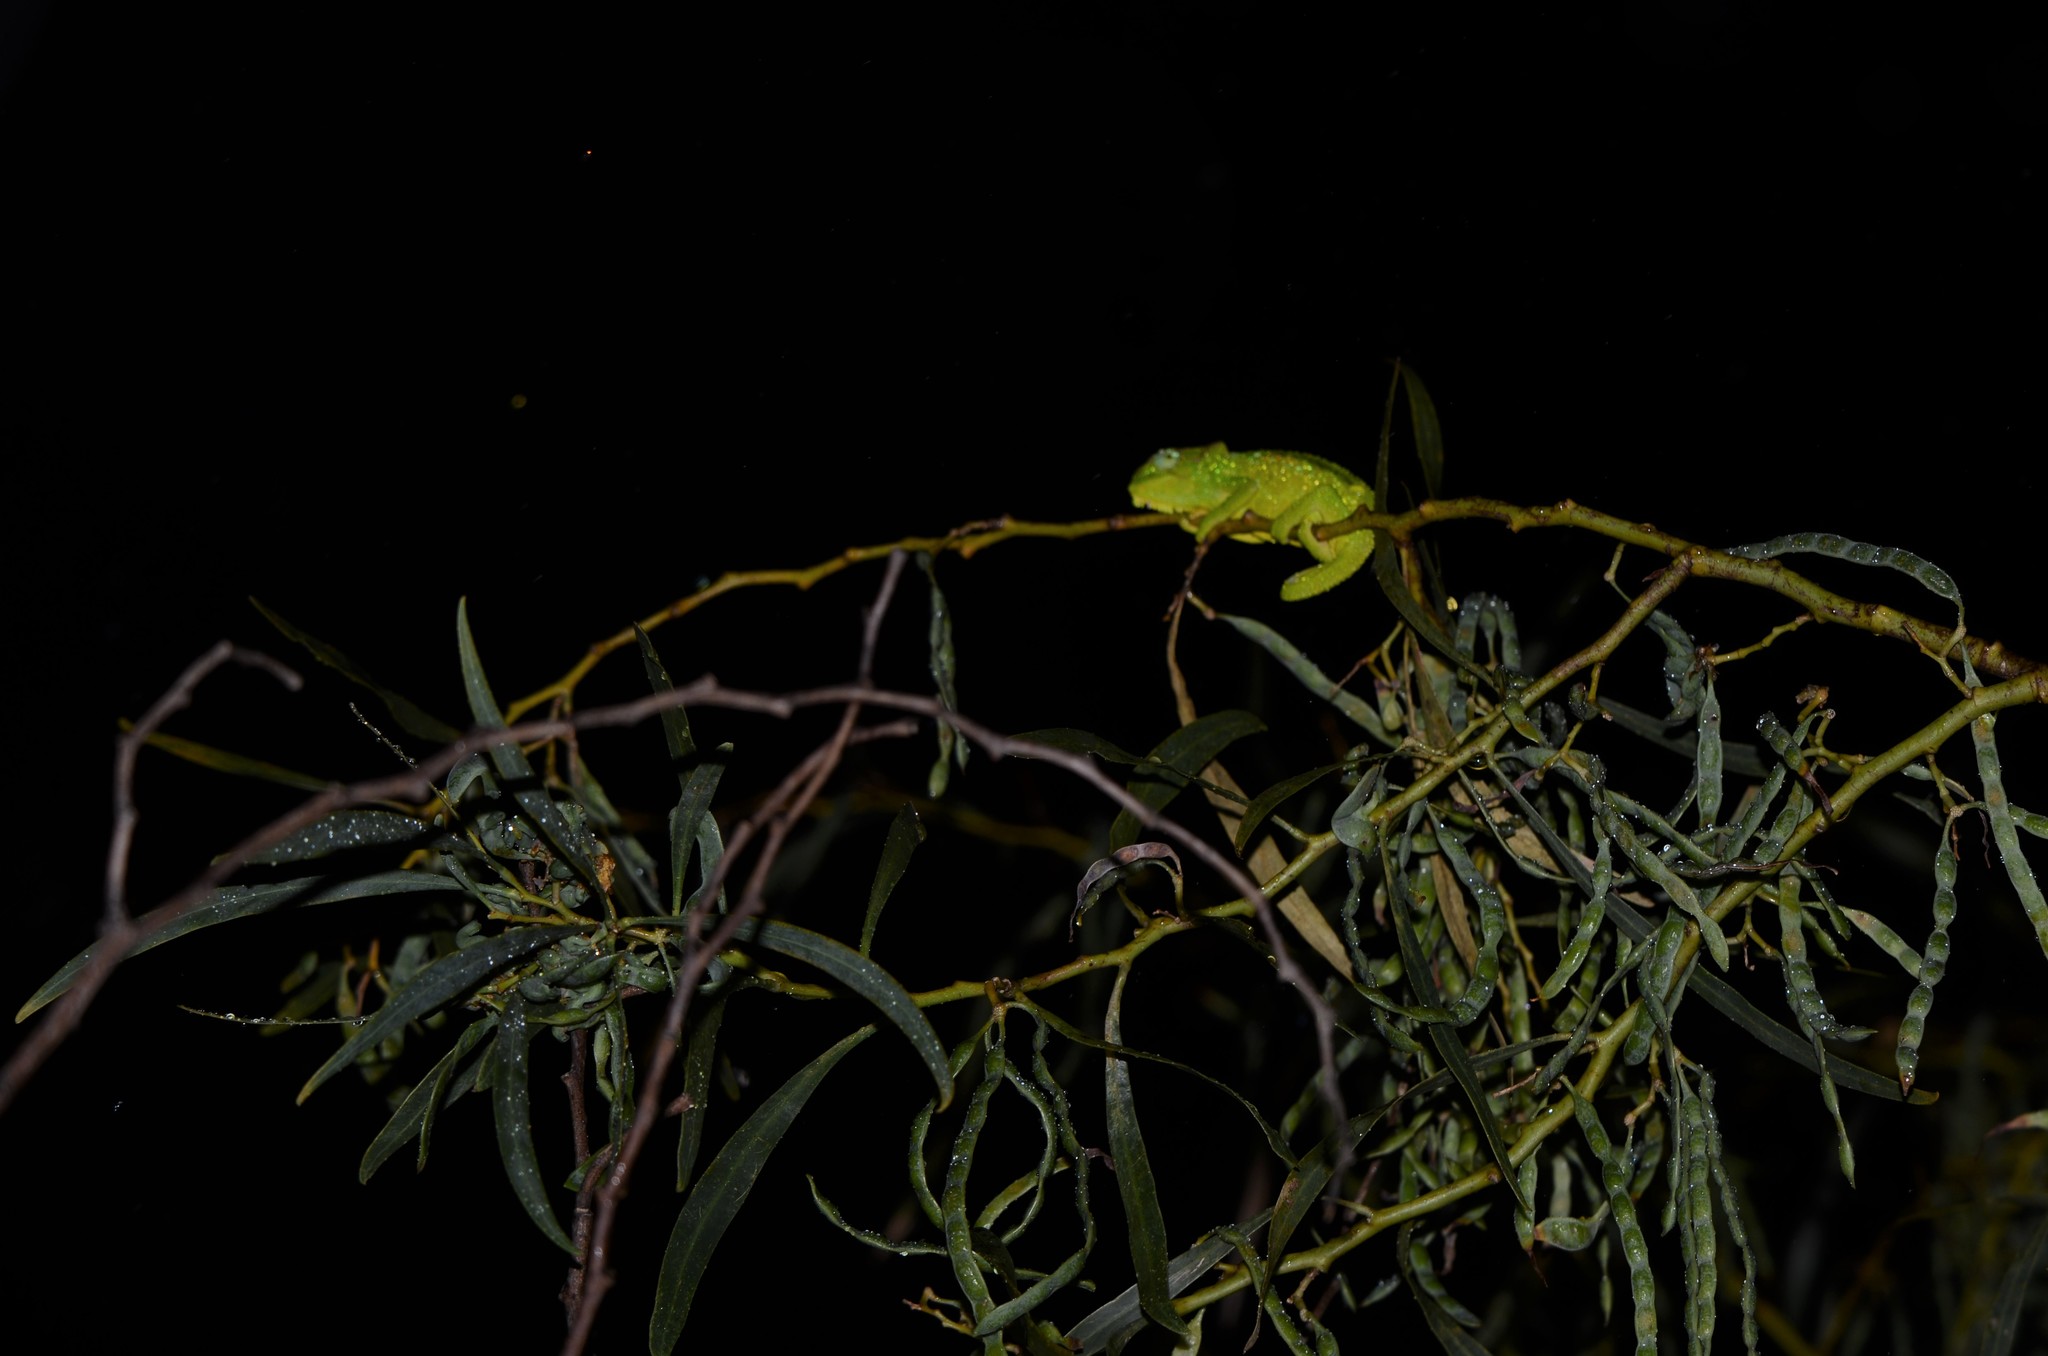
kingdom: Animalia
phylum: Chordata
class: Squamata
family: Chamaeleonidae
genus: Bradypodion
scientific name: Bradypodion pumilum
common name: Cape dwarf chameleon
